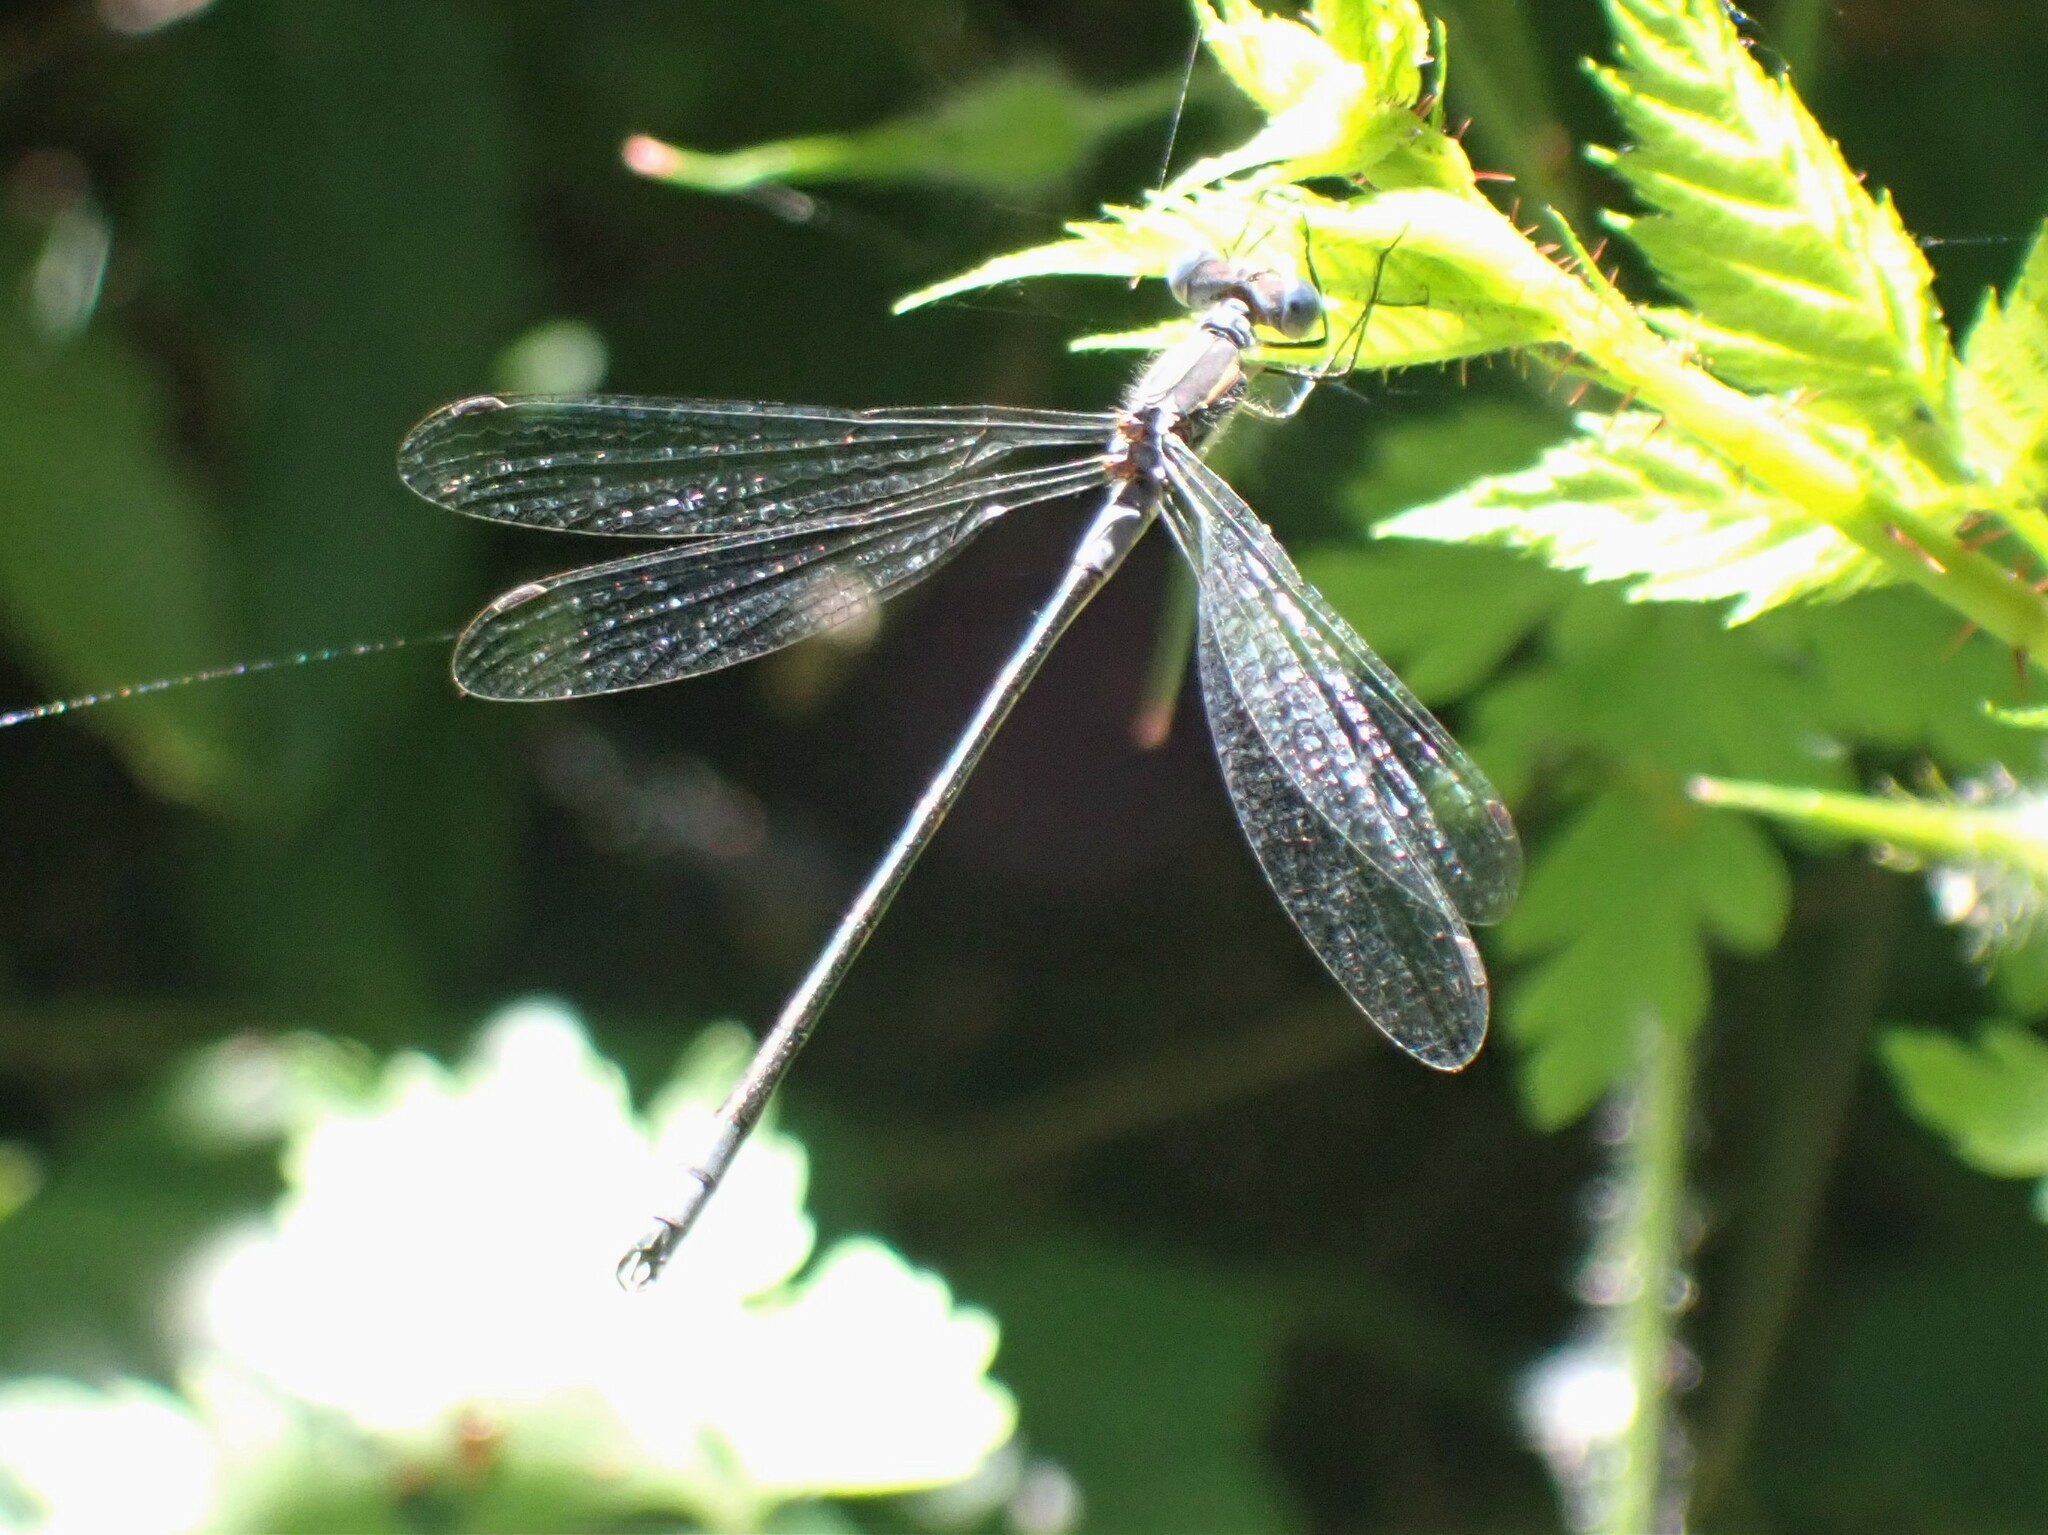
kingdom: Animalia
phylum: Arthropoda
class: Insecta
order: Odonata
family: Lestidae
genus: Lestes
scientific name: Lestes disjunctus
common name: Northern spreadwing
